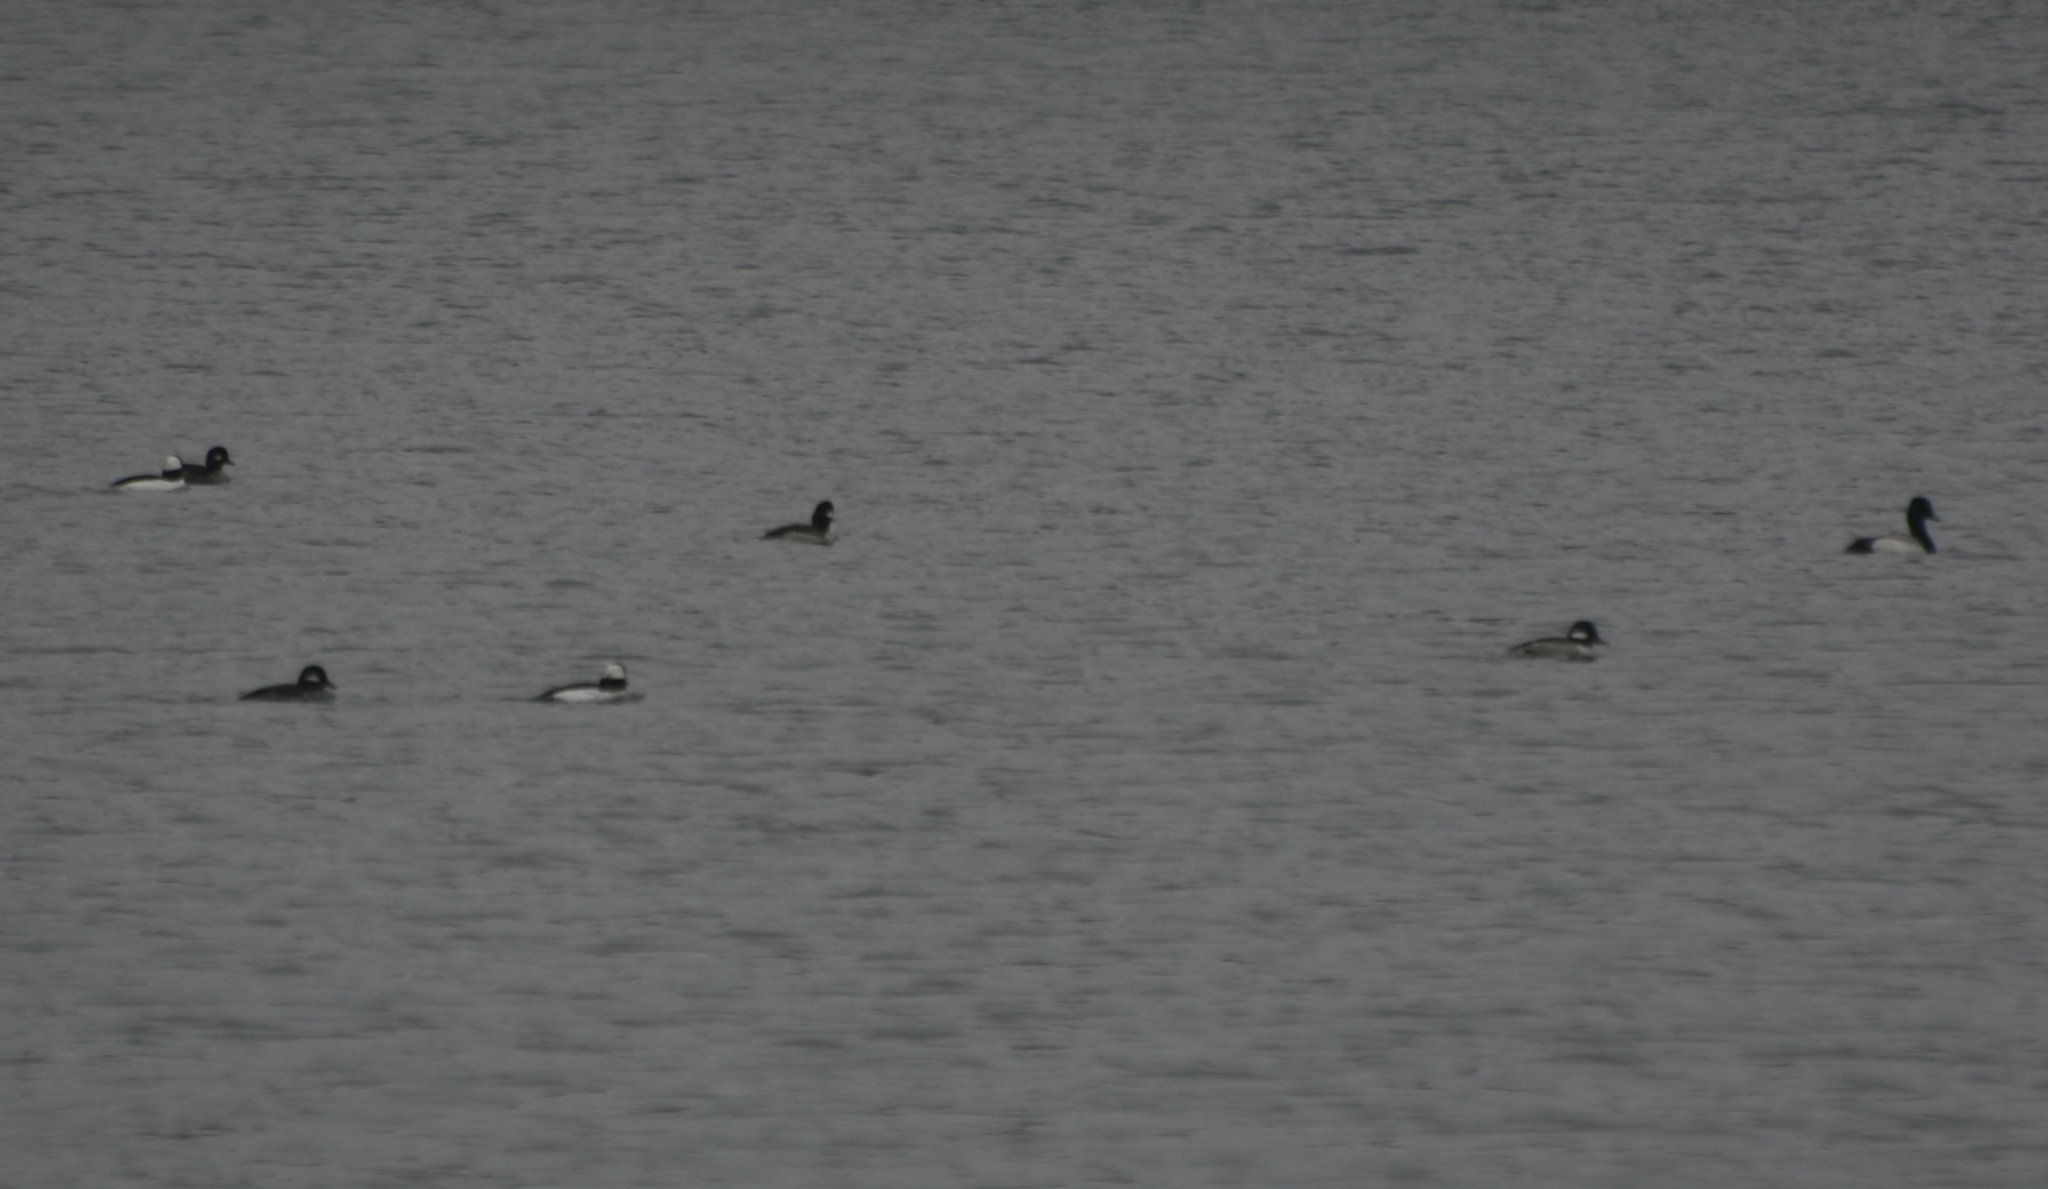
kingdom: Animalia
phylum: Chordata
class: Aves
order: Anseriformes
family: Anatidae
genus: Bucephala
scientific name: Bucephala albeola
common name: Bufflehead
